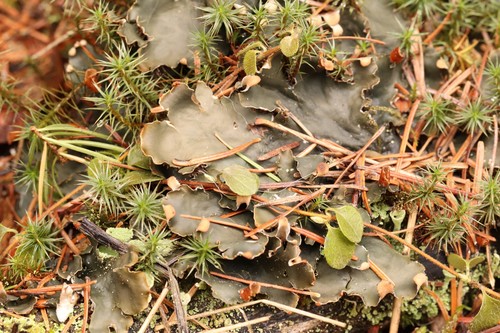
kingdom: Fungi
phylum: Ascomycota
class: Lecanoromycetes
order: Peltigerales
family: Peltigeraceae
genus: Peltigera
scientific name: Peltigera polydactylon
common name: Many-fruited pelt lichen
